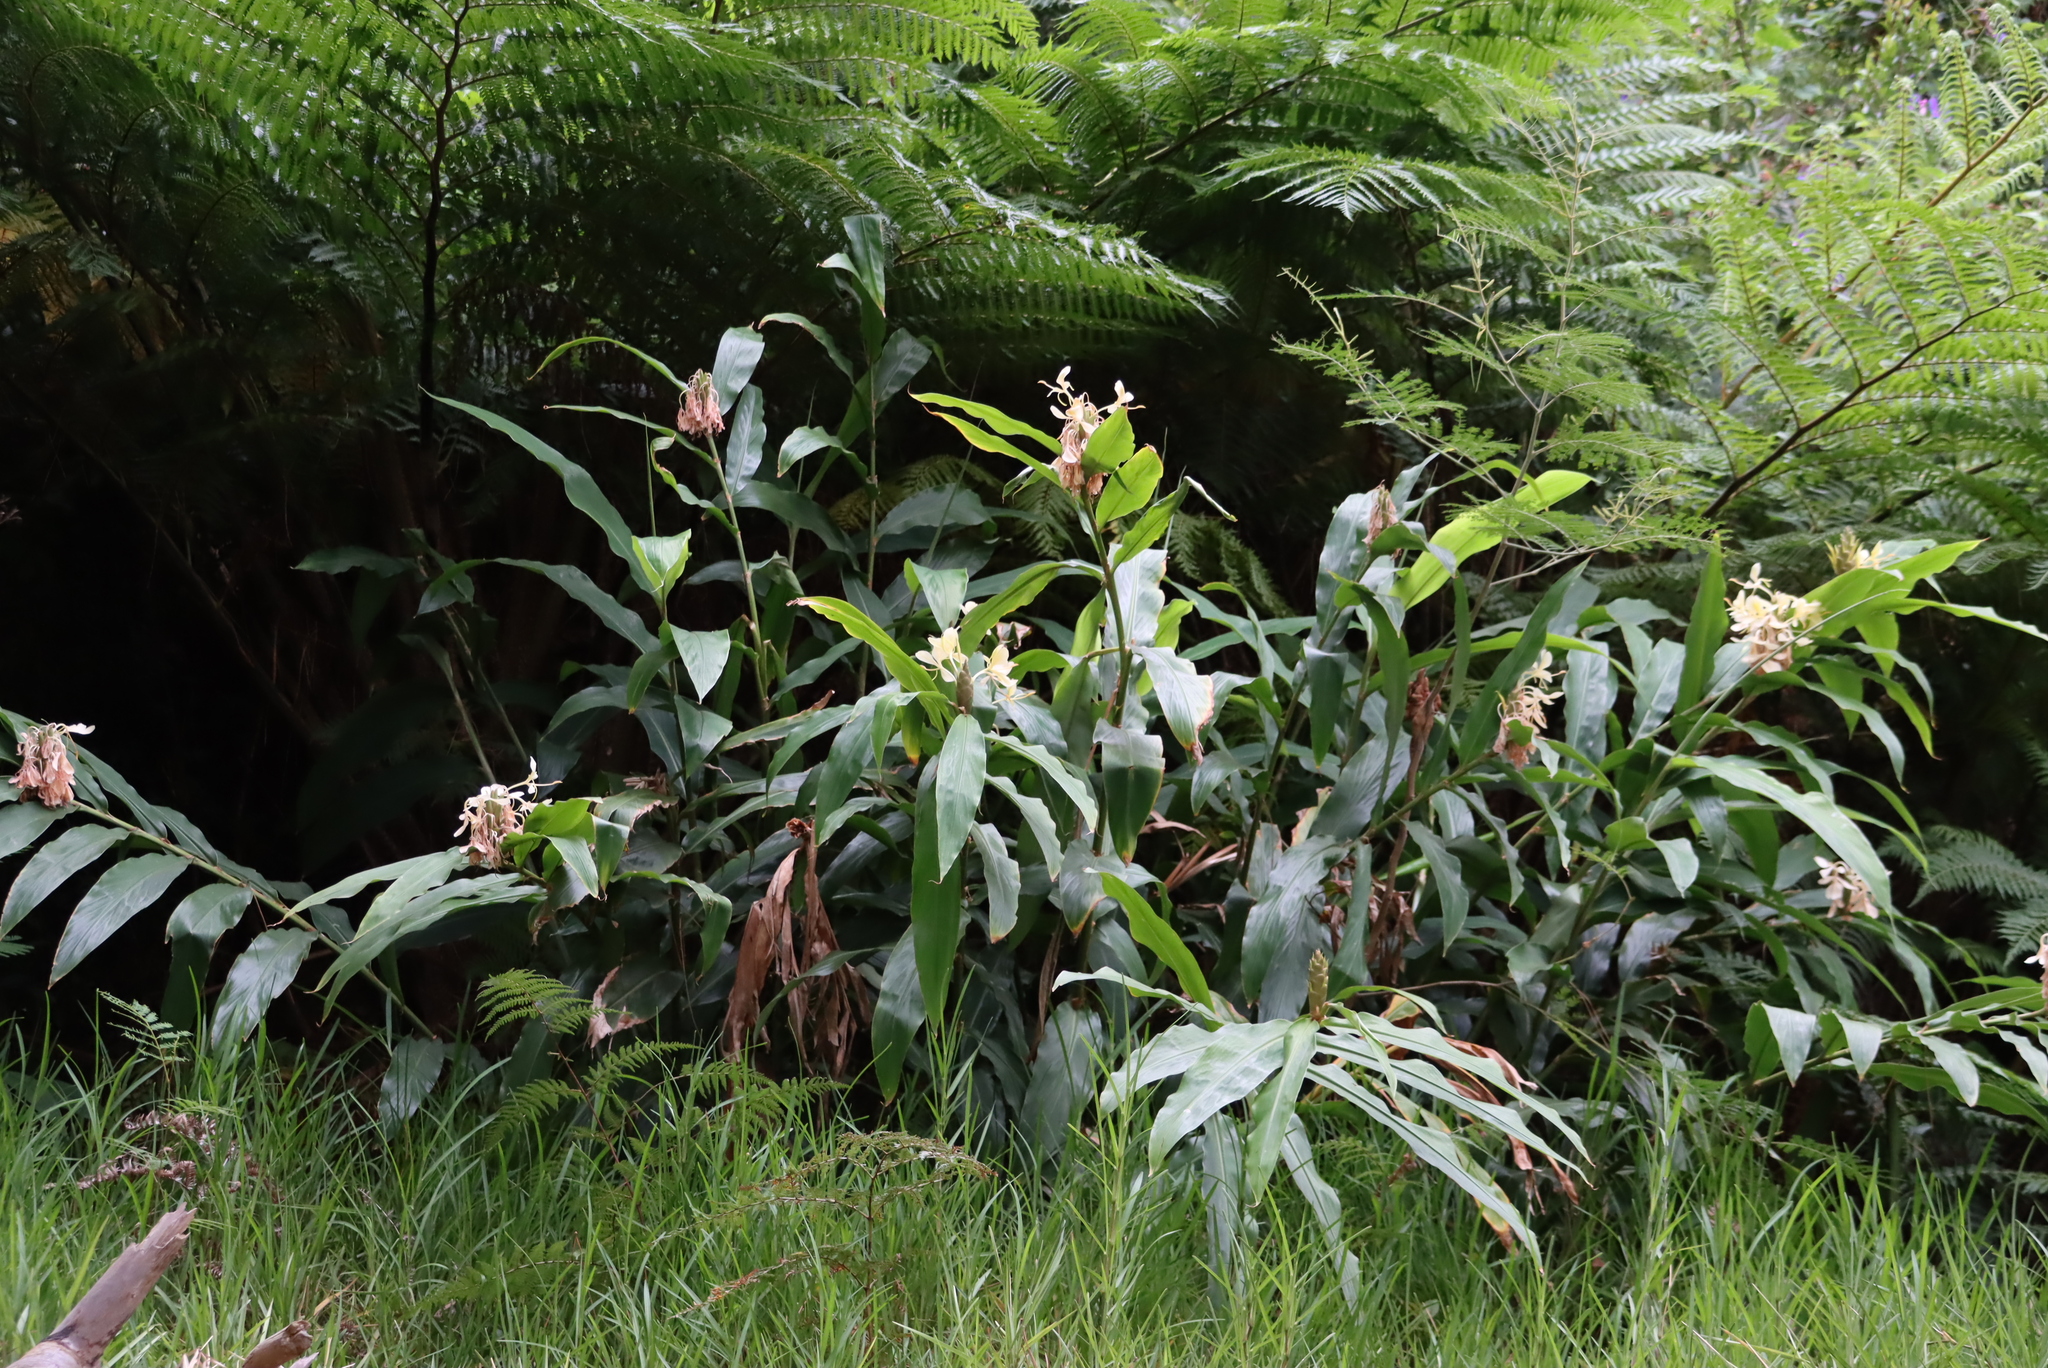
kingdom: Plantae
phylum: Tracheophyta
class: Liliopsida
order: Zingiberales
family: Zingiberaceae
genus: Hedychium
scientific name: Hedychium flavescens
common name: Yellow ginger
